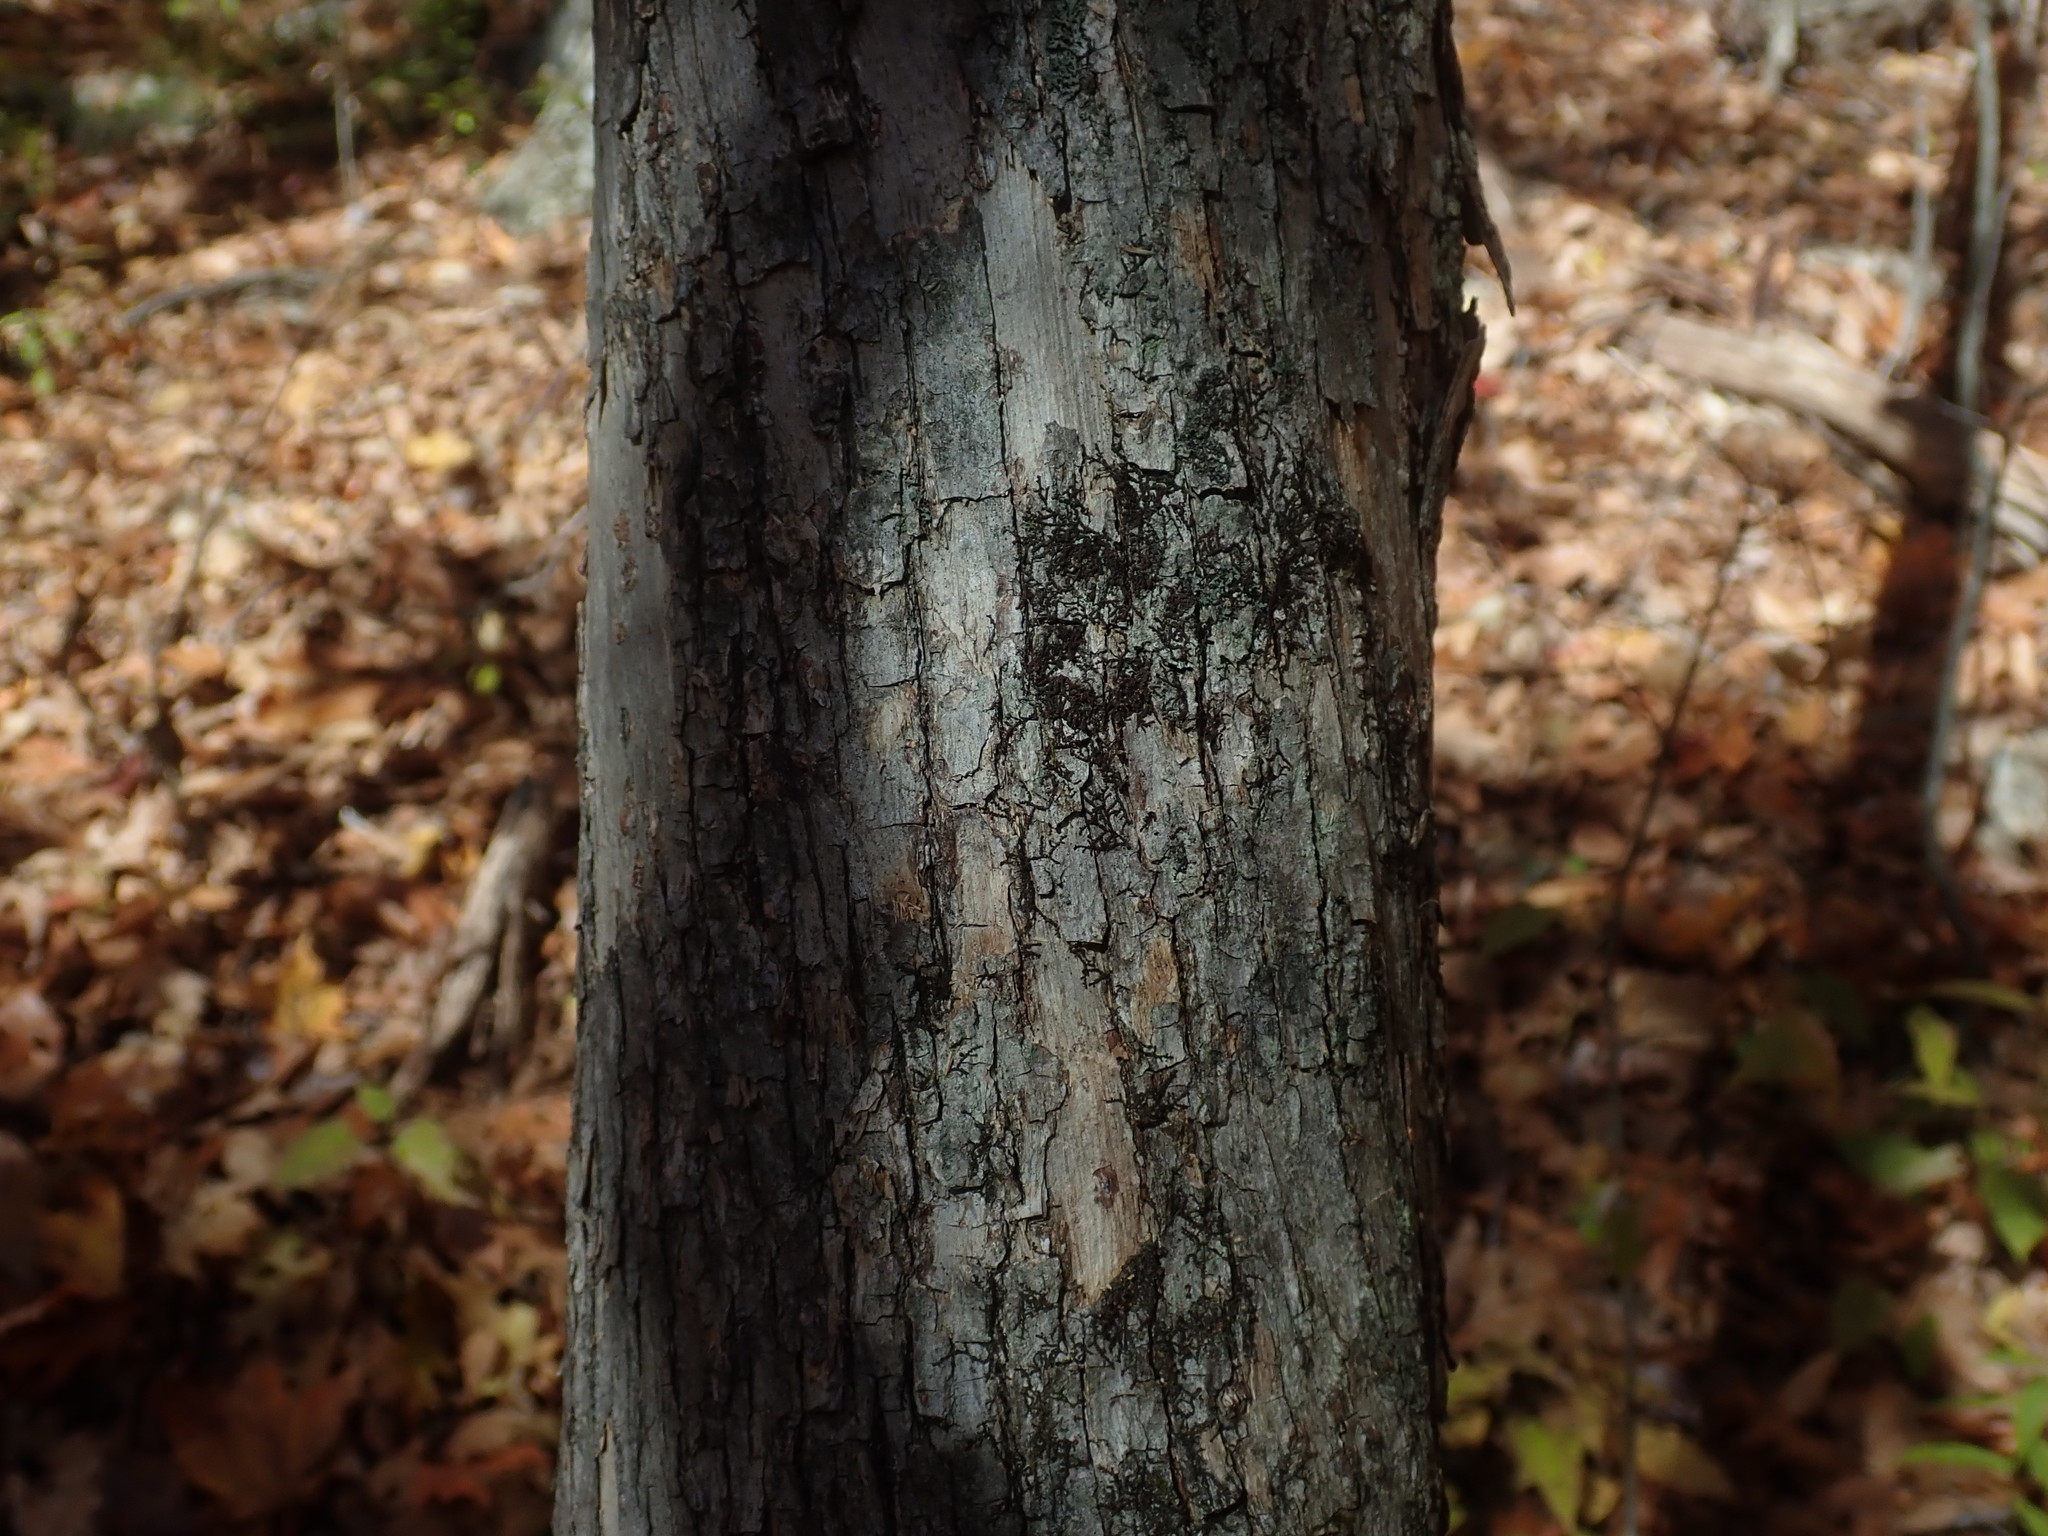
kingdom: Plantae
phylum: Tracheophyta
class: Magnoliopsida
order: Fagales
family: Betulaceae
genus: Ostrya
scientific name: Ostrya virginiana
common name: Ironwood
